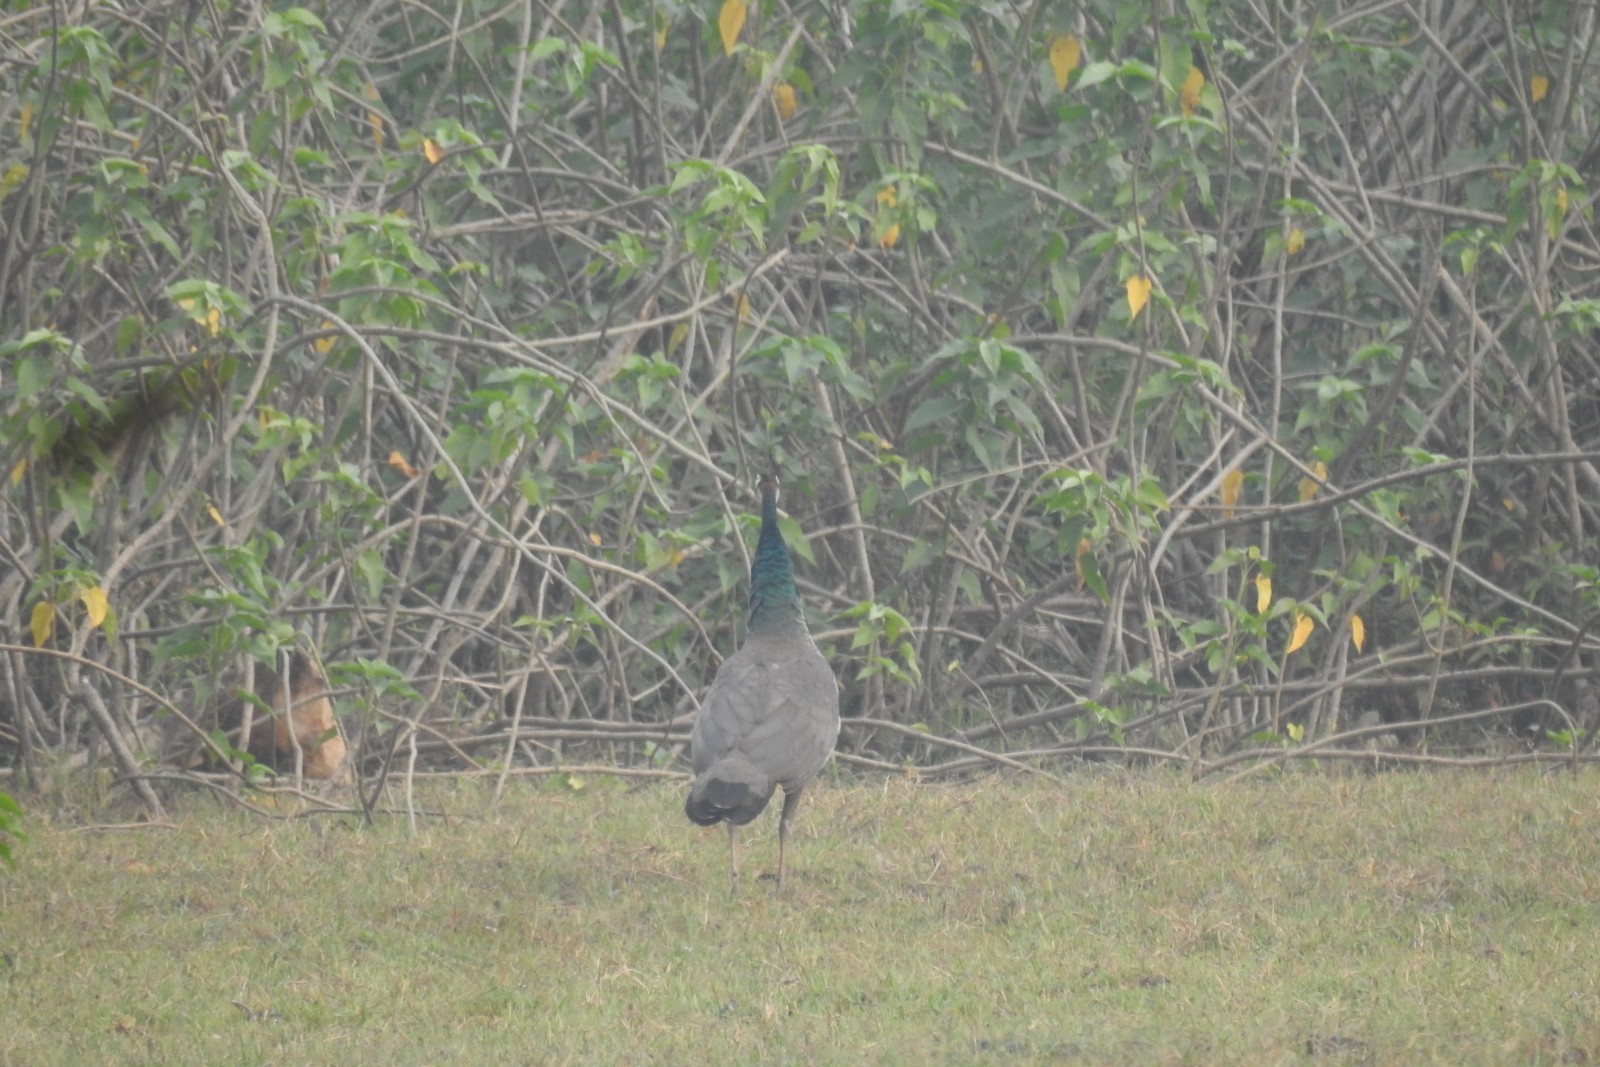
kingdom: Animalia
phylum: Chordata
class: Aves
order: Galliformes
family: Phasianidae
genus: Pavo
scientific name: Pavo cristatus
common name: Indian peafowl
